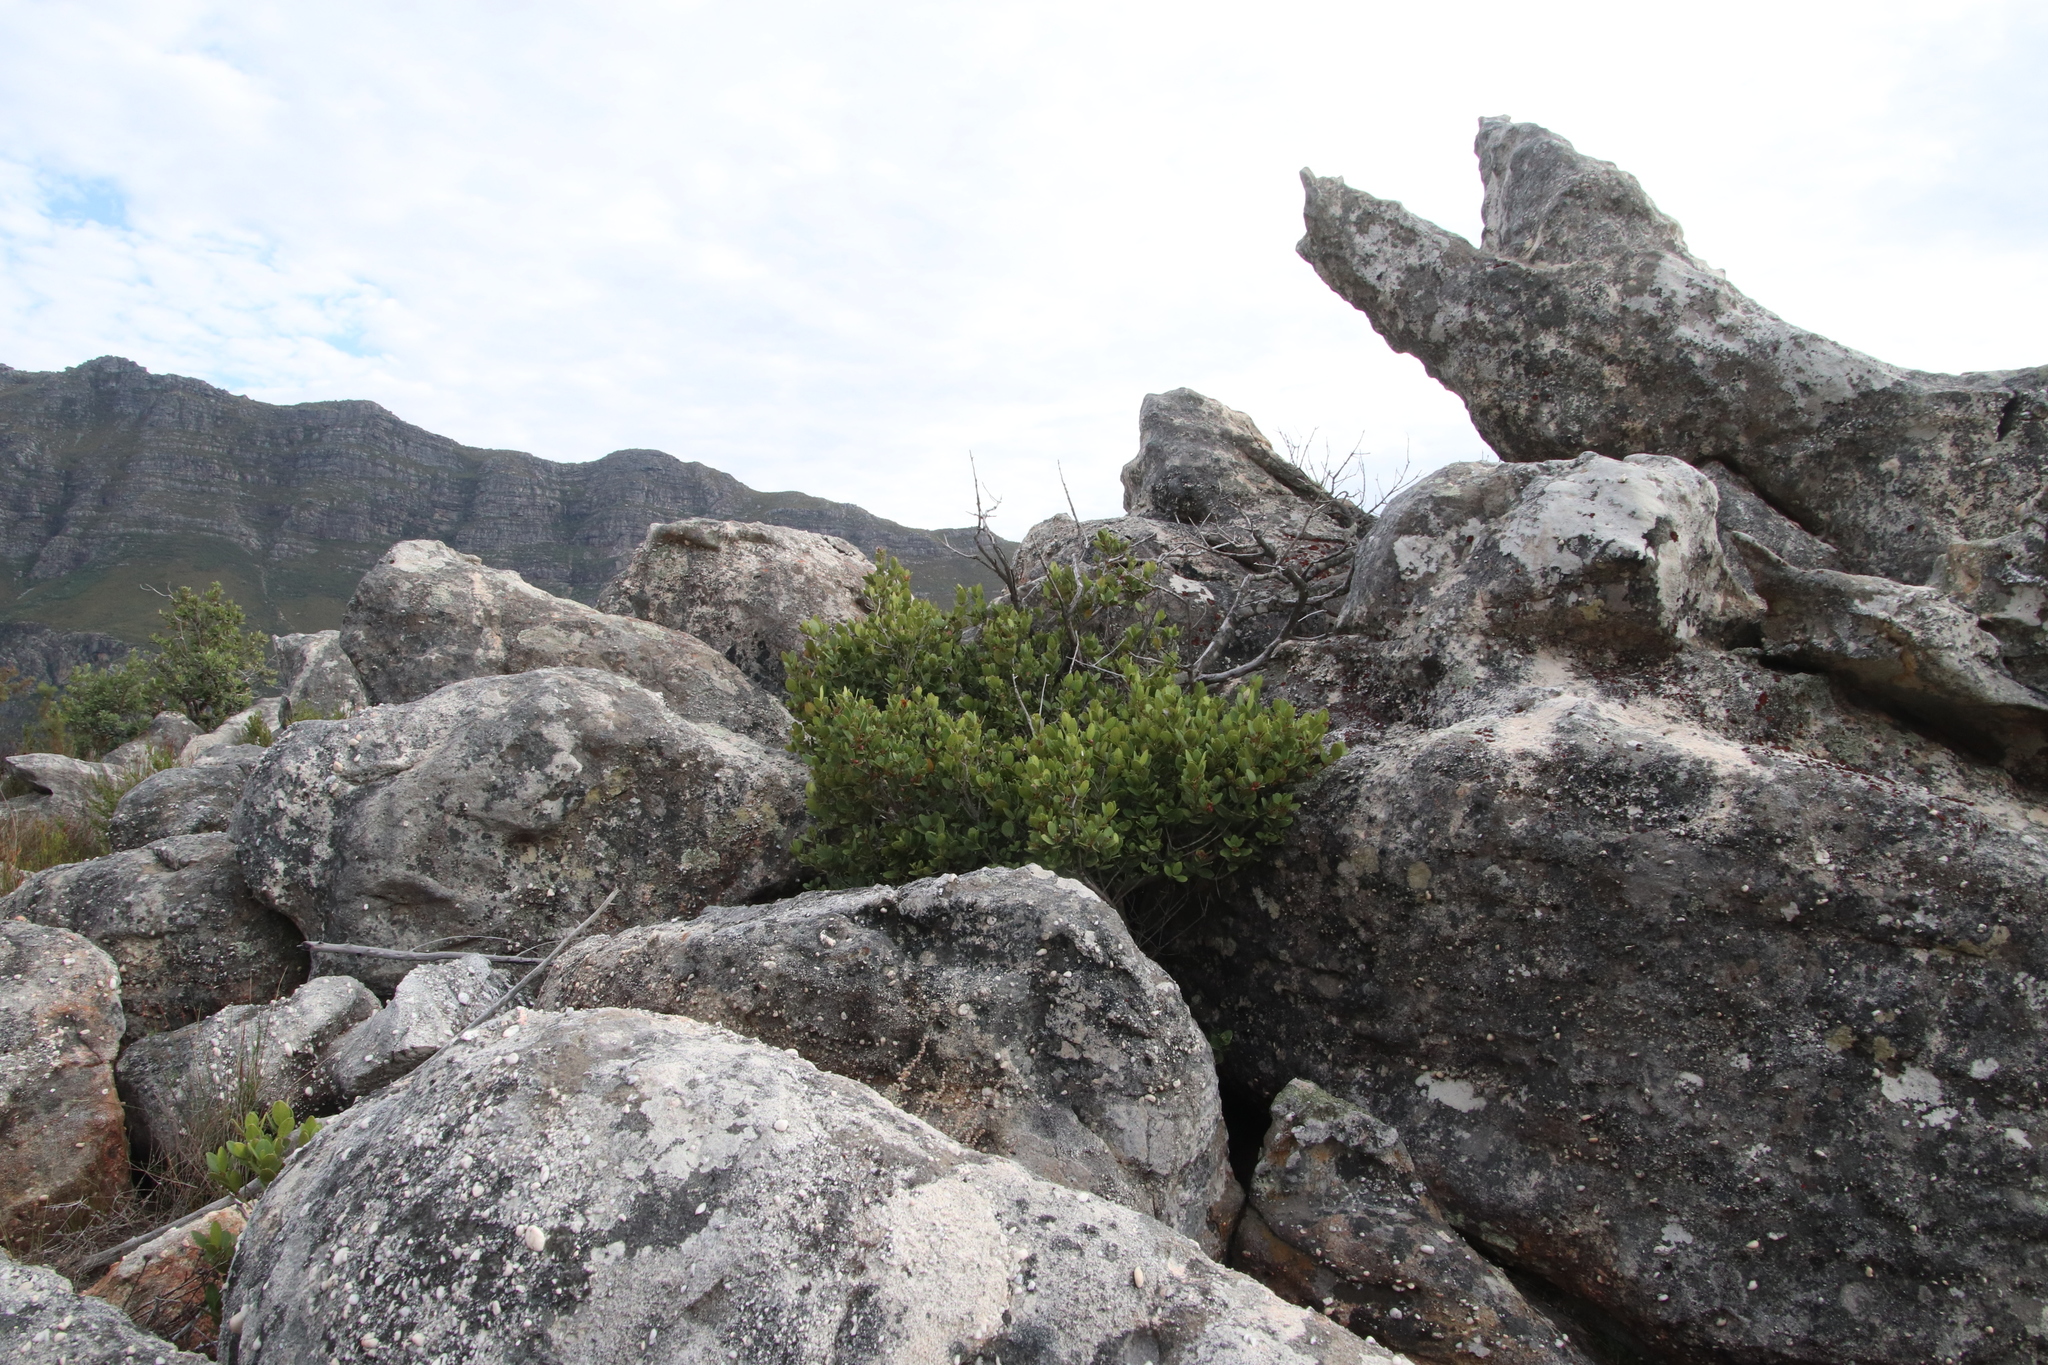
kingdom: Plantae
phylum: Tracheophyta
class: Magnoliopsida
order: Celastrales
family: Celastraceae
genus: Cassine
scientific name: Cassine parvifolia
